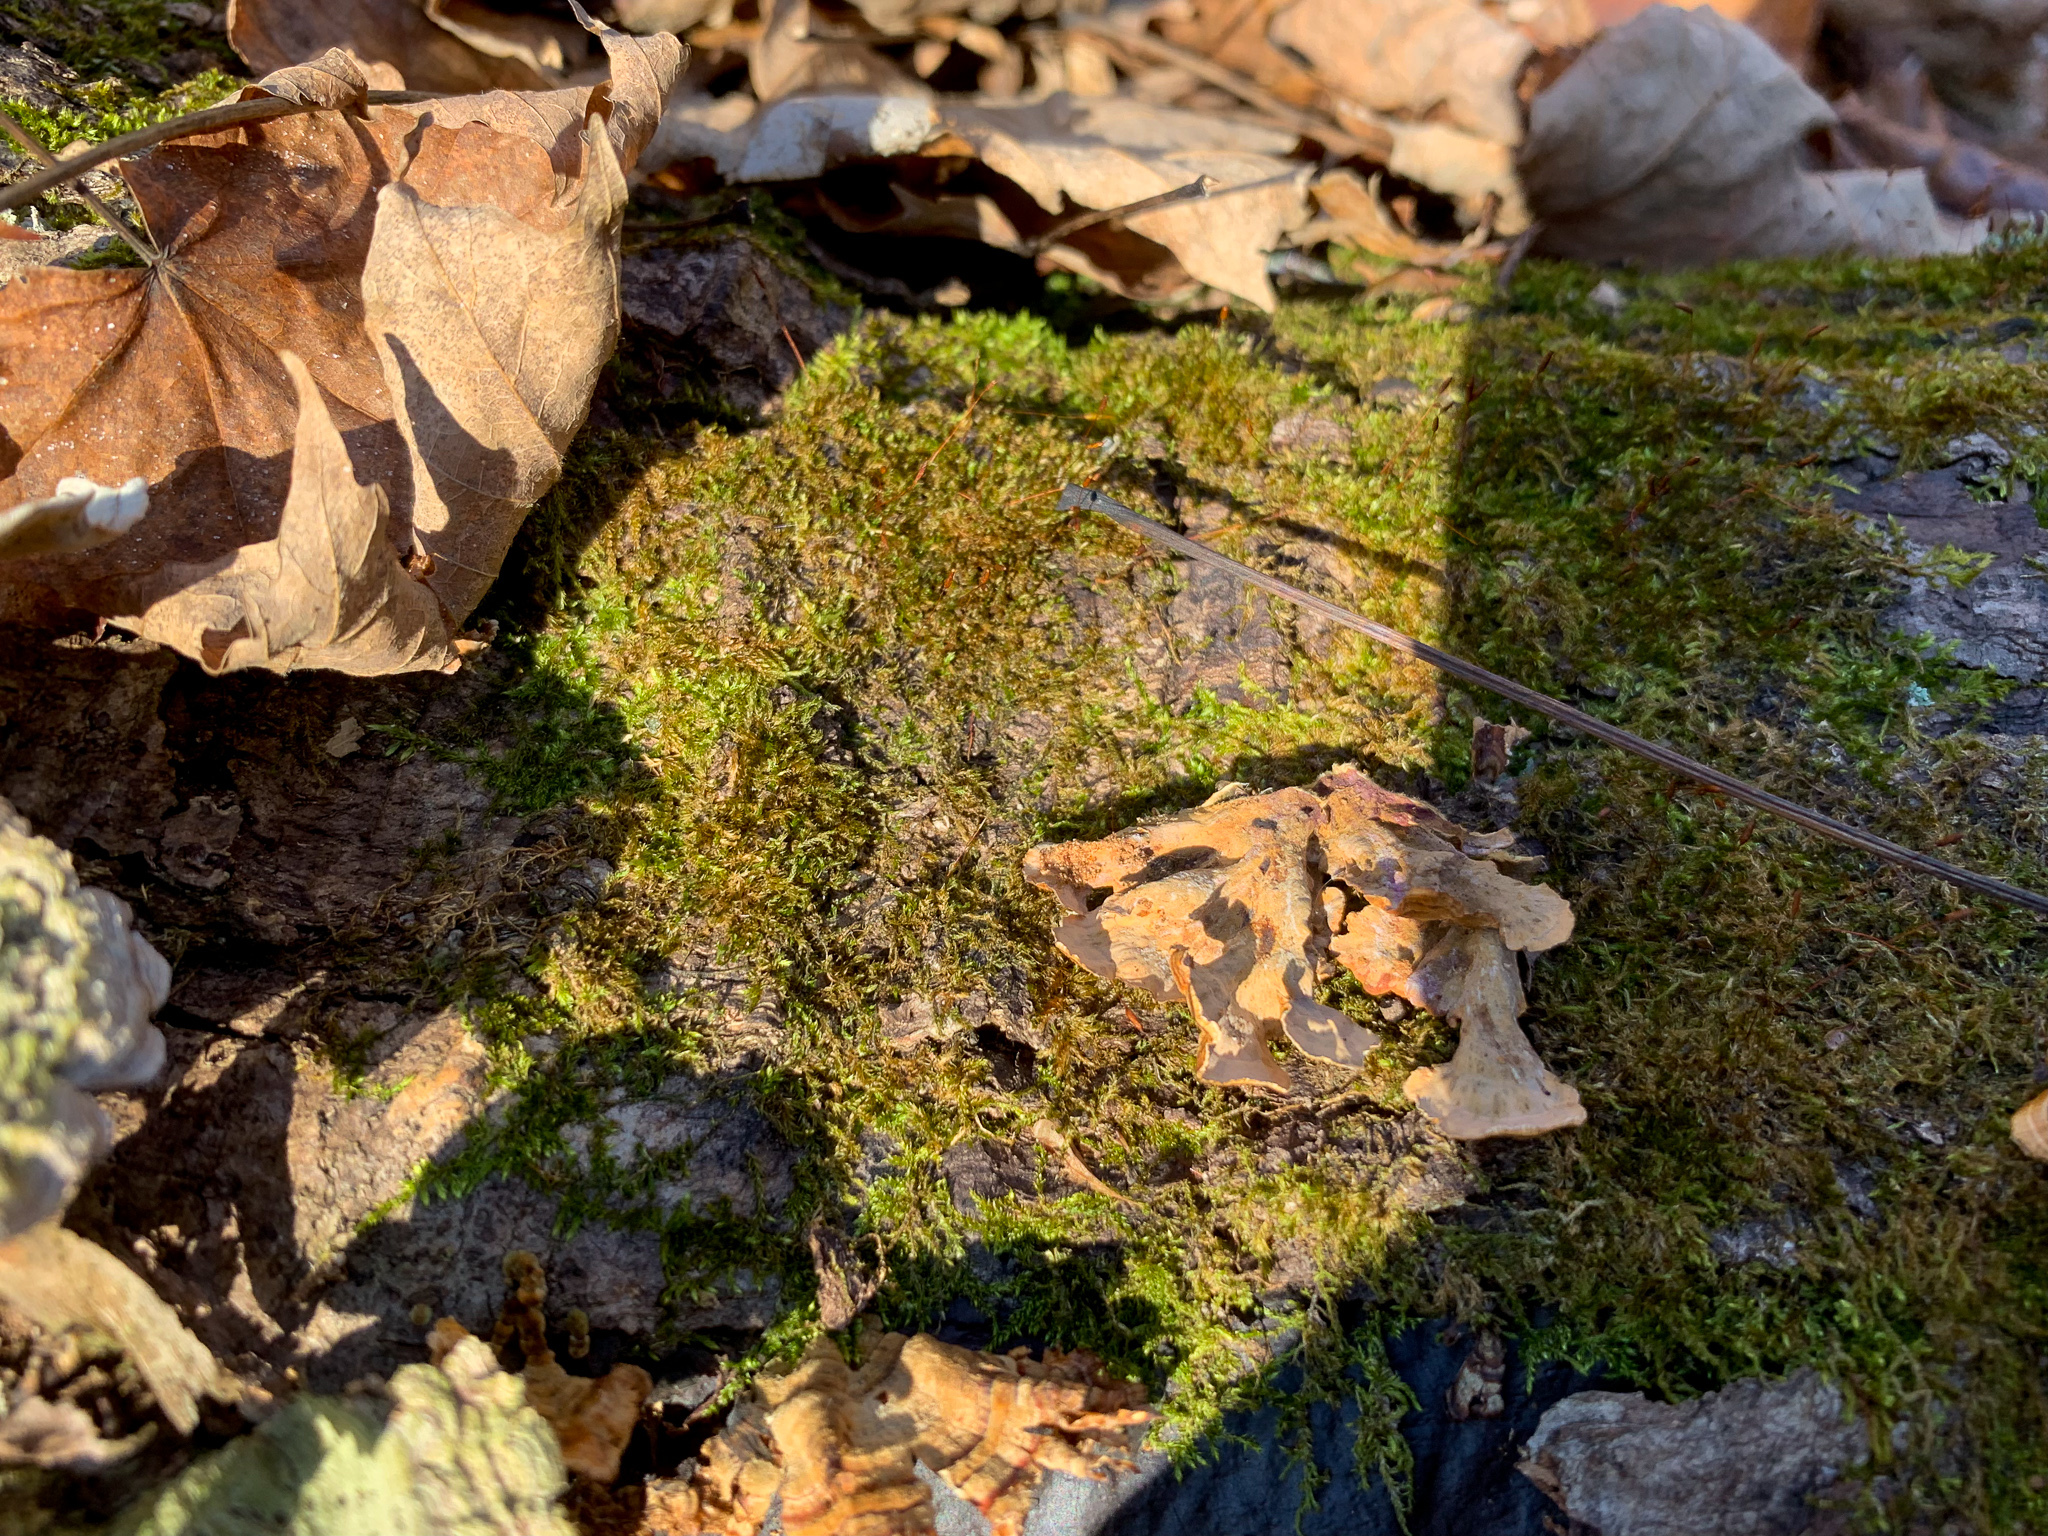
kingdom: Fungi
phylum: Basidiomycota
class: Agaricomycetes
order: Russulales
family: Stereaceae
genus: Stereum
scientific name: Stereum complicatum
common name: Crowded parchment
